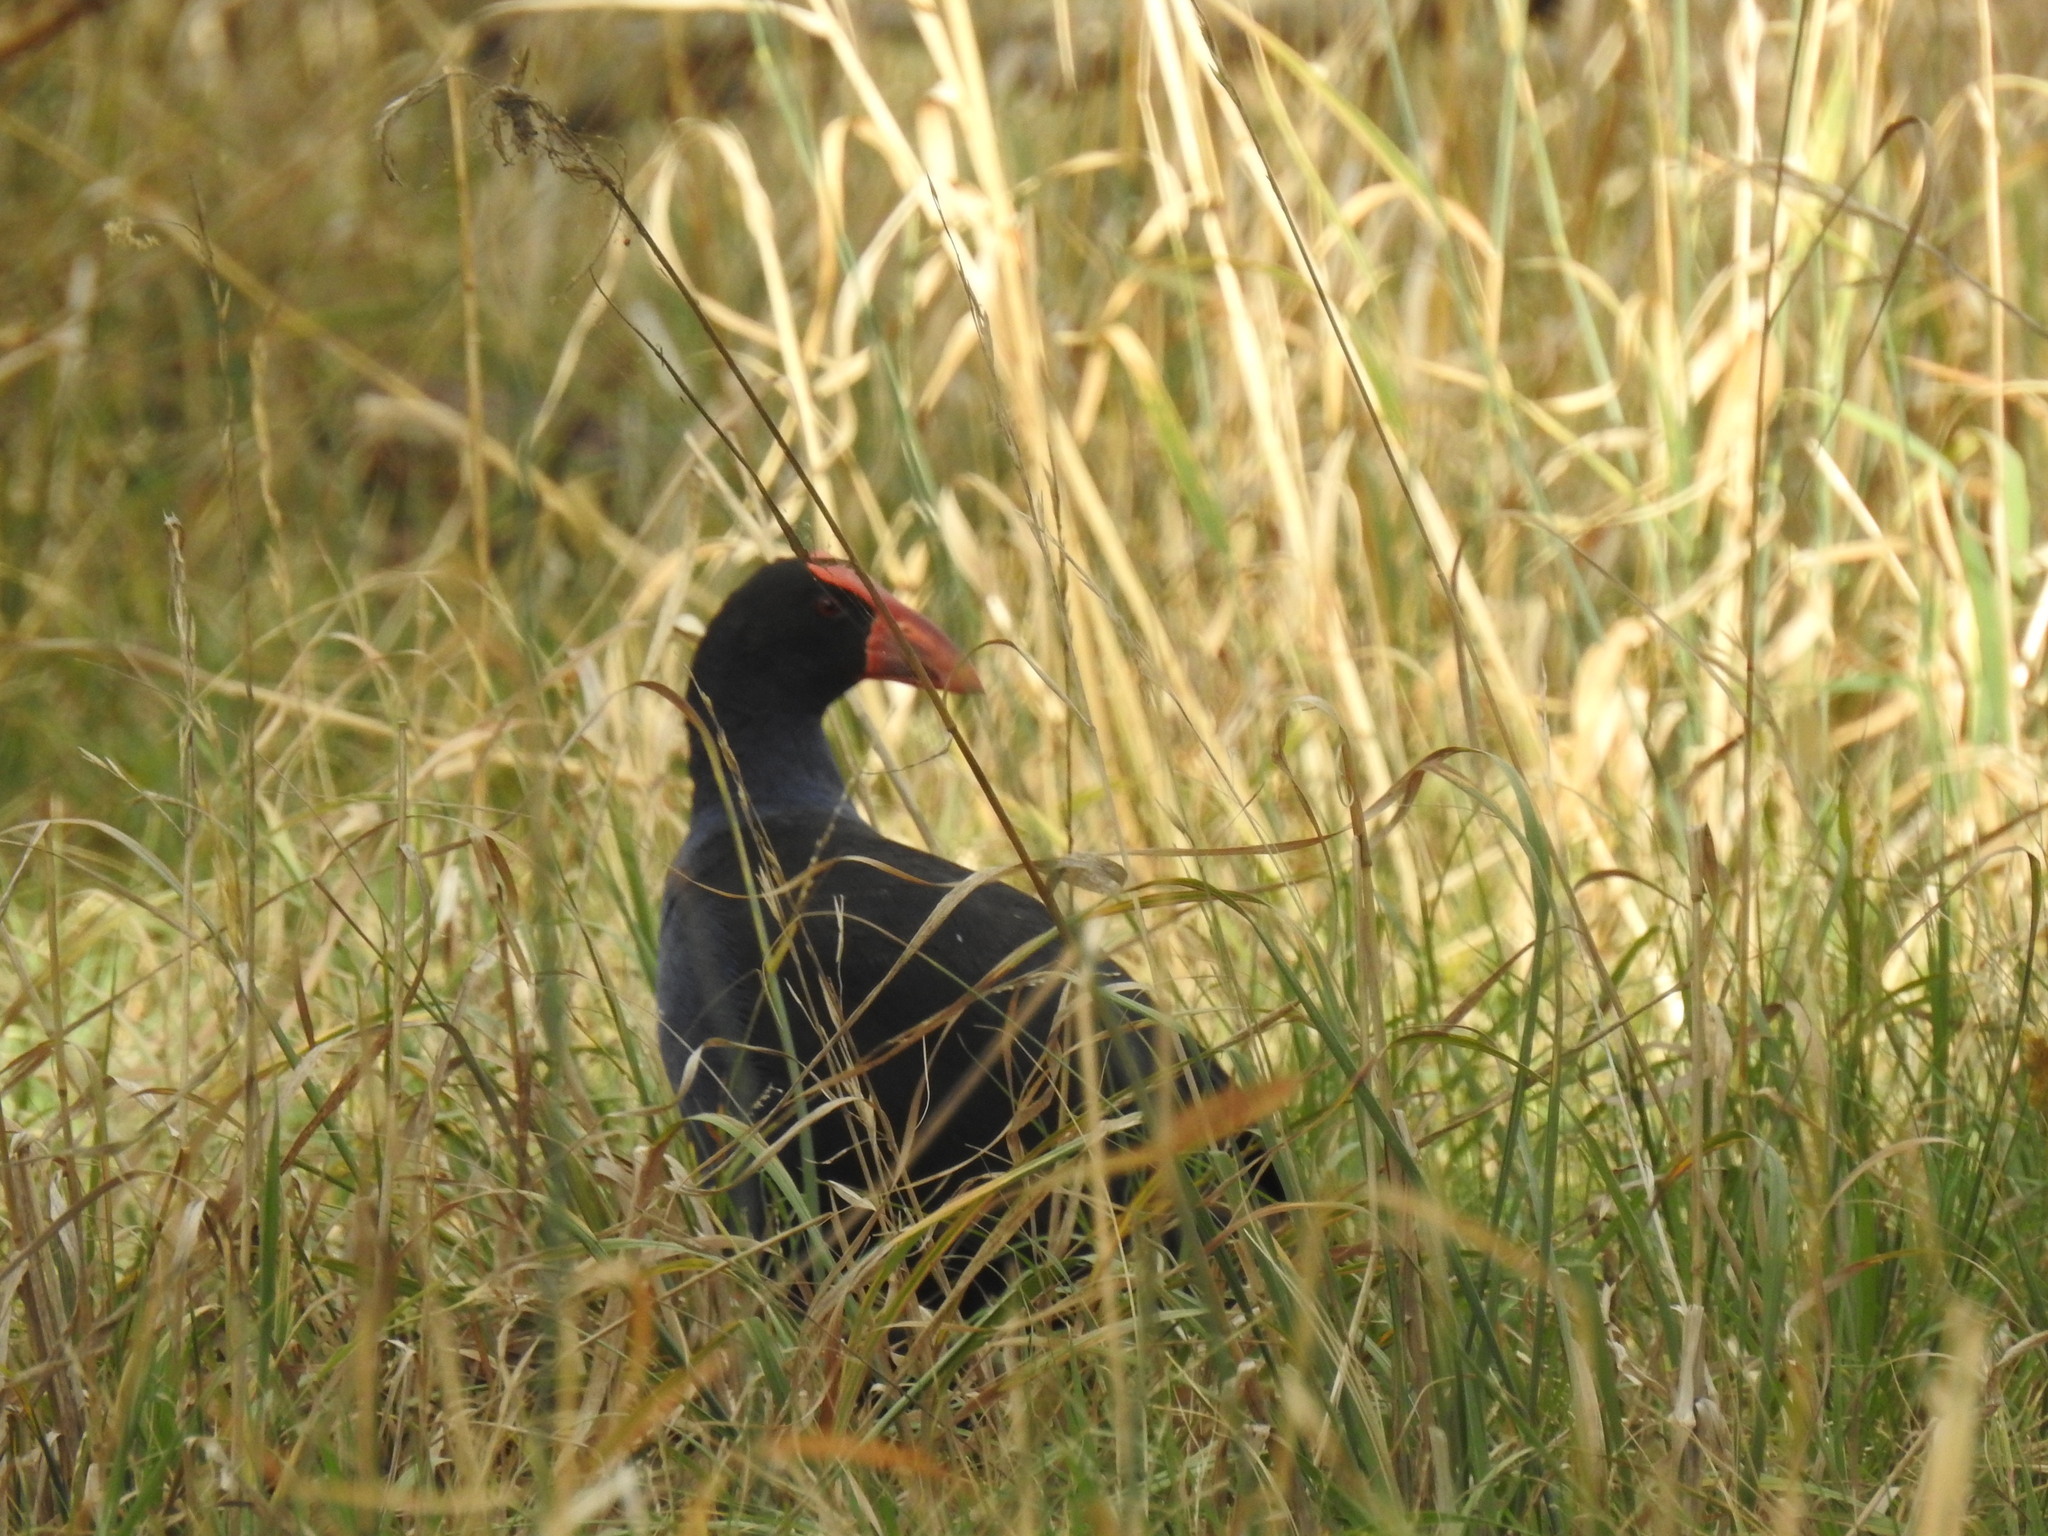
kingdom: Animalia
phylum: Chordata
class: Aves
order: Gruiformes
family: Rallidae
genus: Porphyrio
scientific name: Porphyrio melanotus
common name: Australasian swamphen
